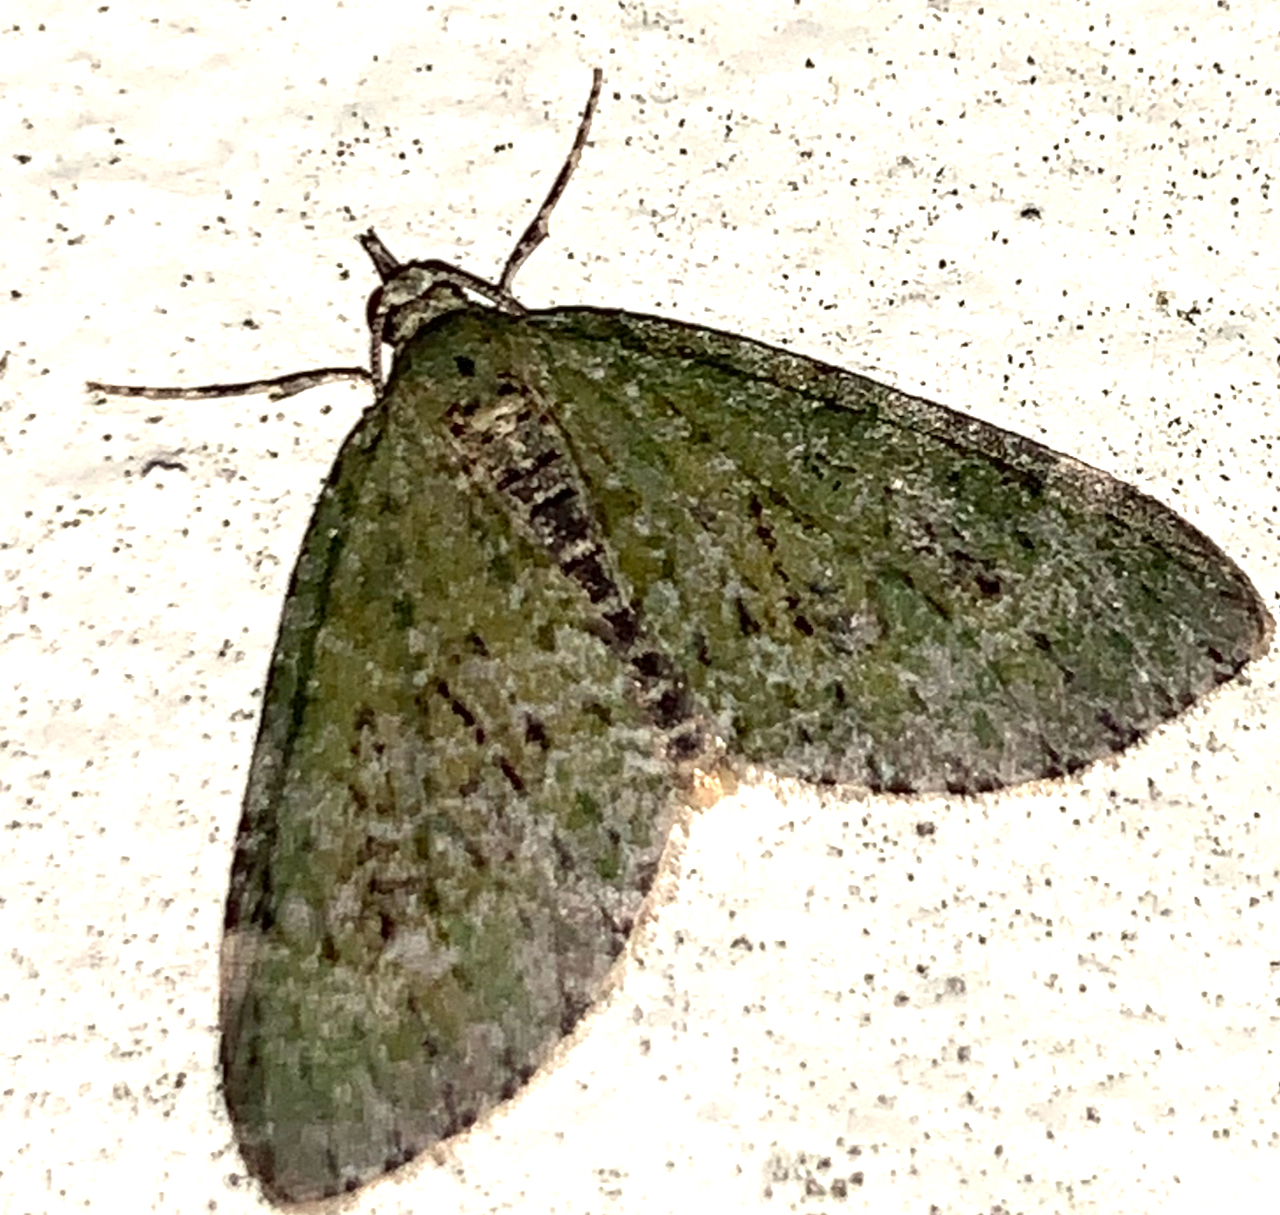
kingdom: Animalia
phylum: Arthropoda
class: Insecta
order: Lepidoptera
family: Geometridae
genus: Acasis
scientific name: Acasis viretata
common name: Yellow-barred brindle
